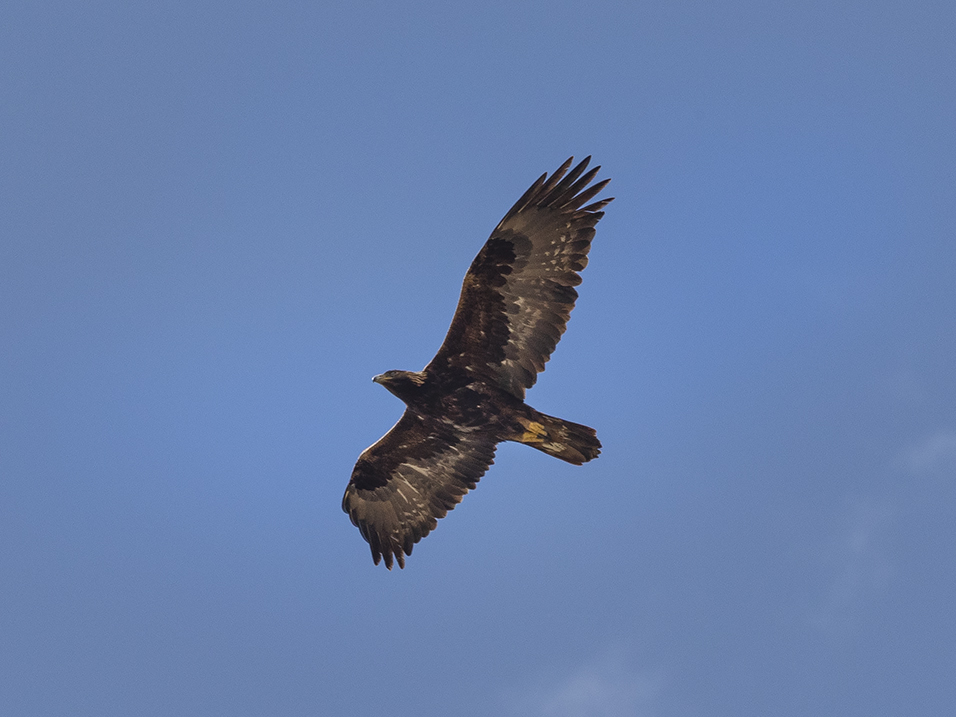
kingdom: Animalia
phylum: Chordata
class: Aves
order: Accipitriformes
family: Accipitridae
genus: Aquila
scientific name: Aquila chrysaetos
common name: Golden eagle
